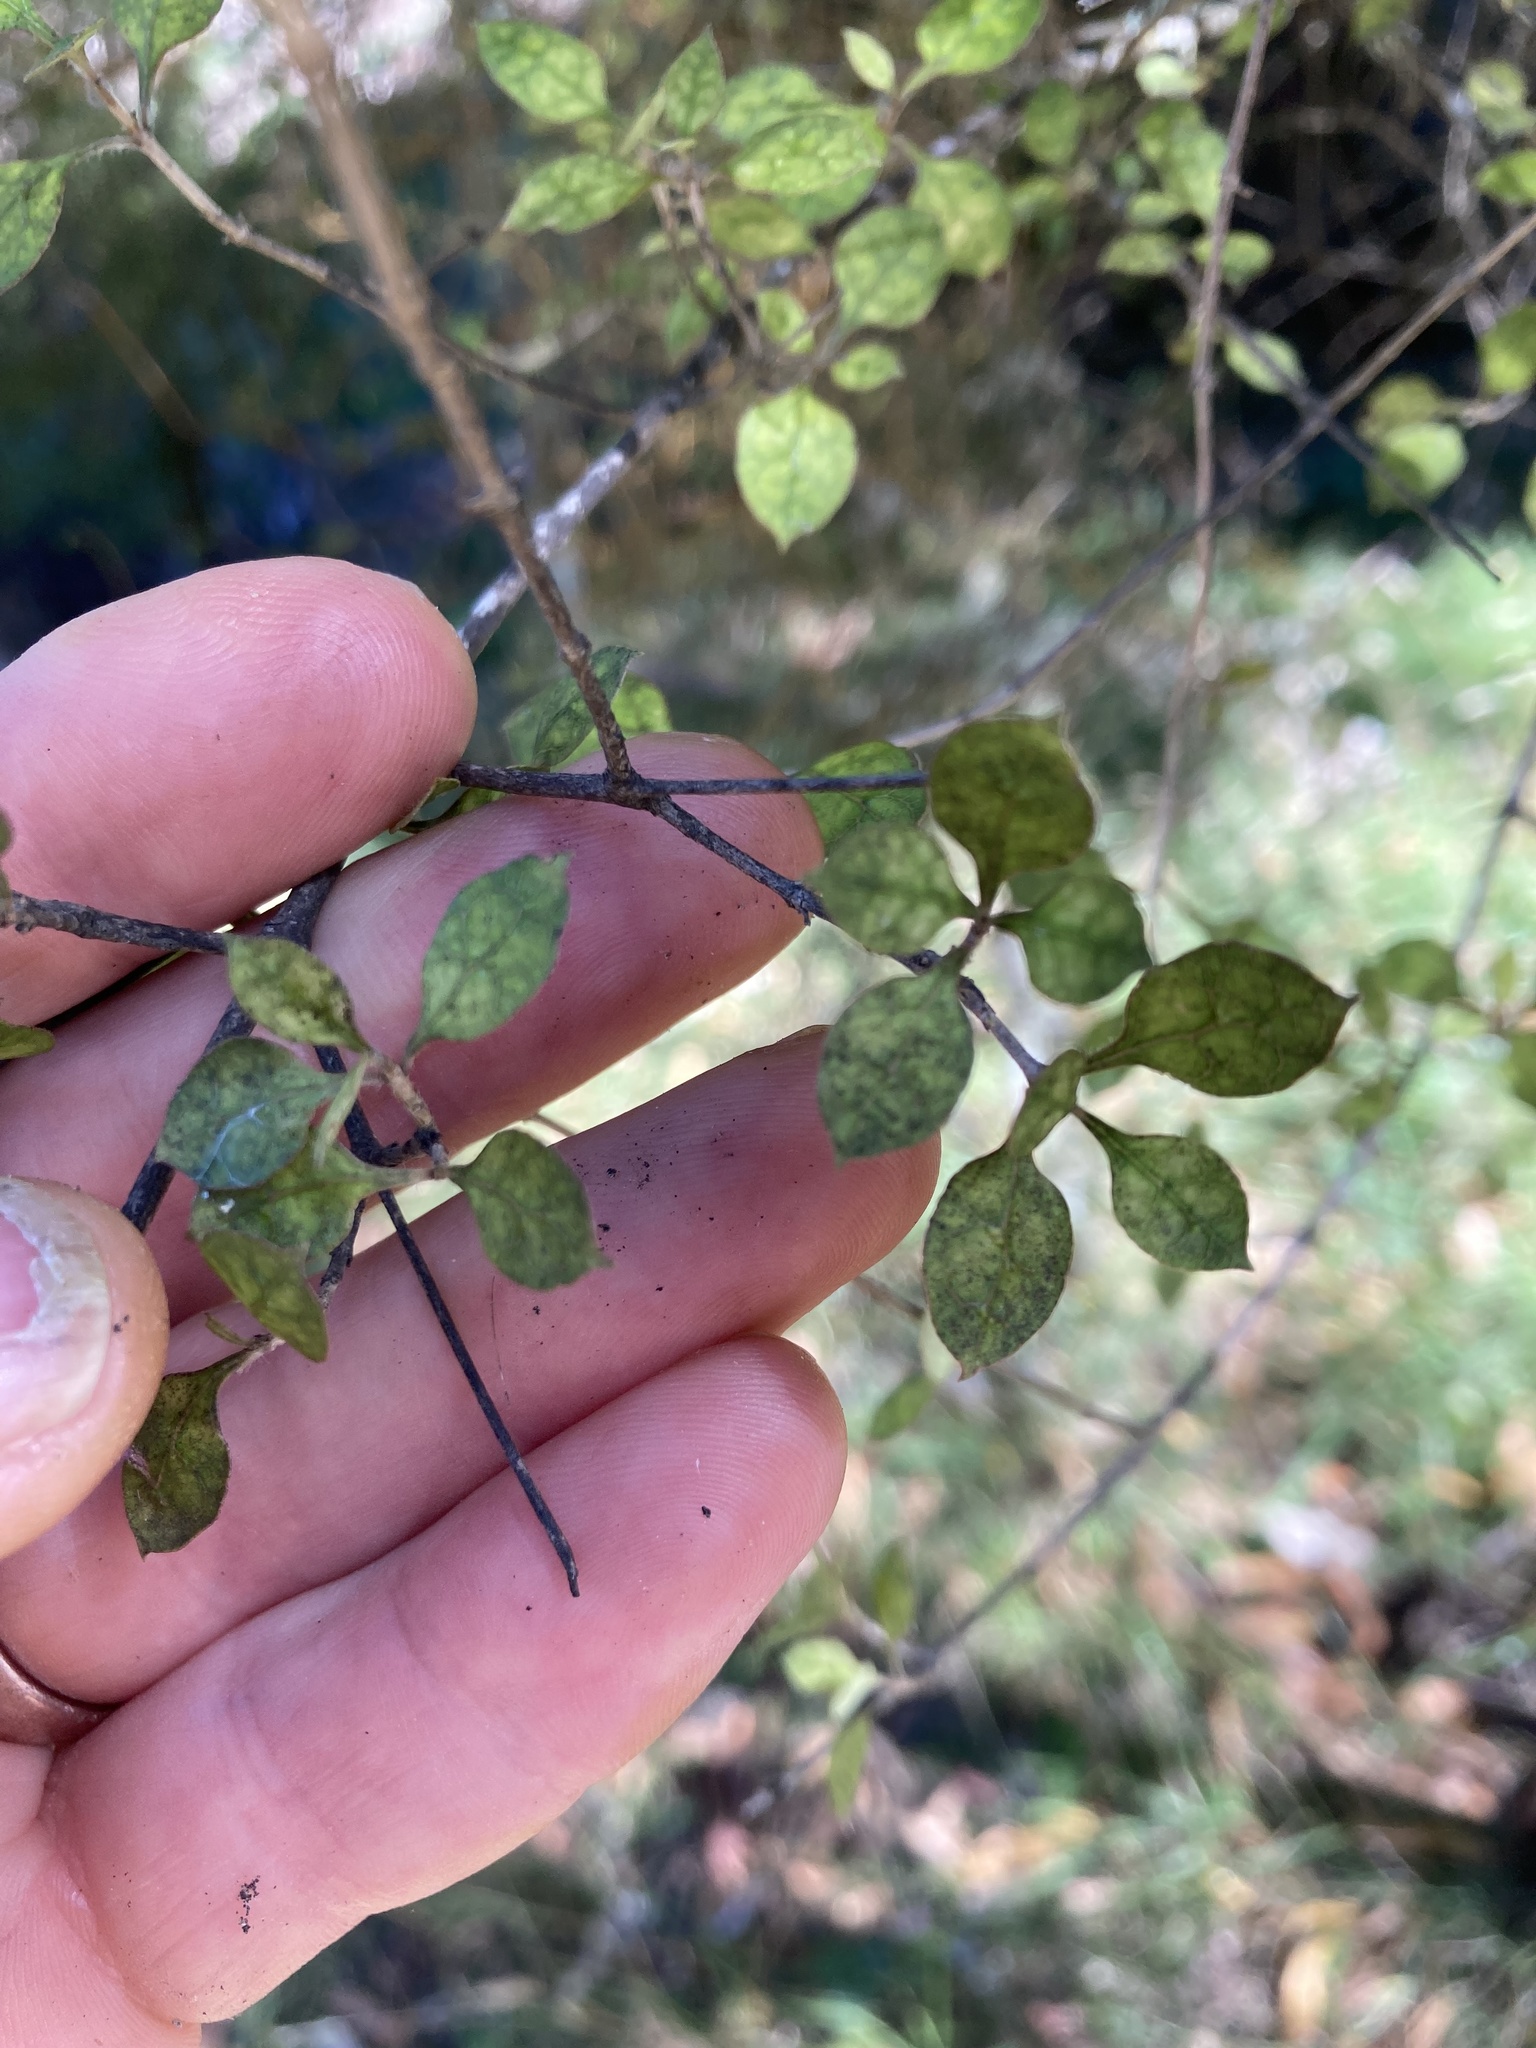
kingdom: Plantae
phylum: Tracheophyta
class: Magnoliopsida
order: Gentianales
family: Rubiaceae
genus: Coprosma
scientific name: Coprosma areolata
